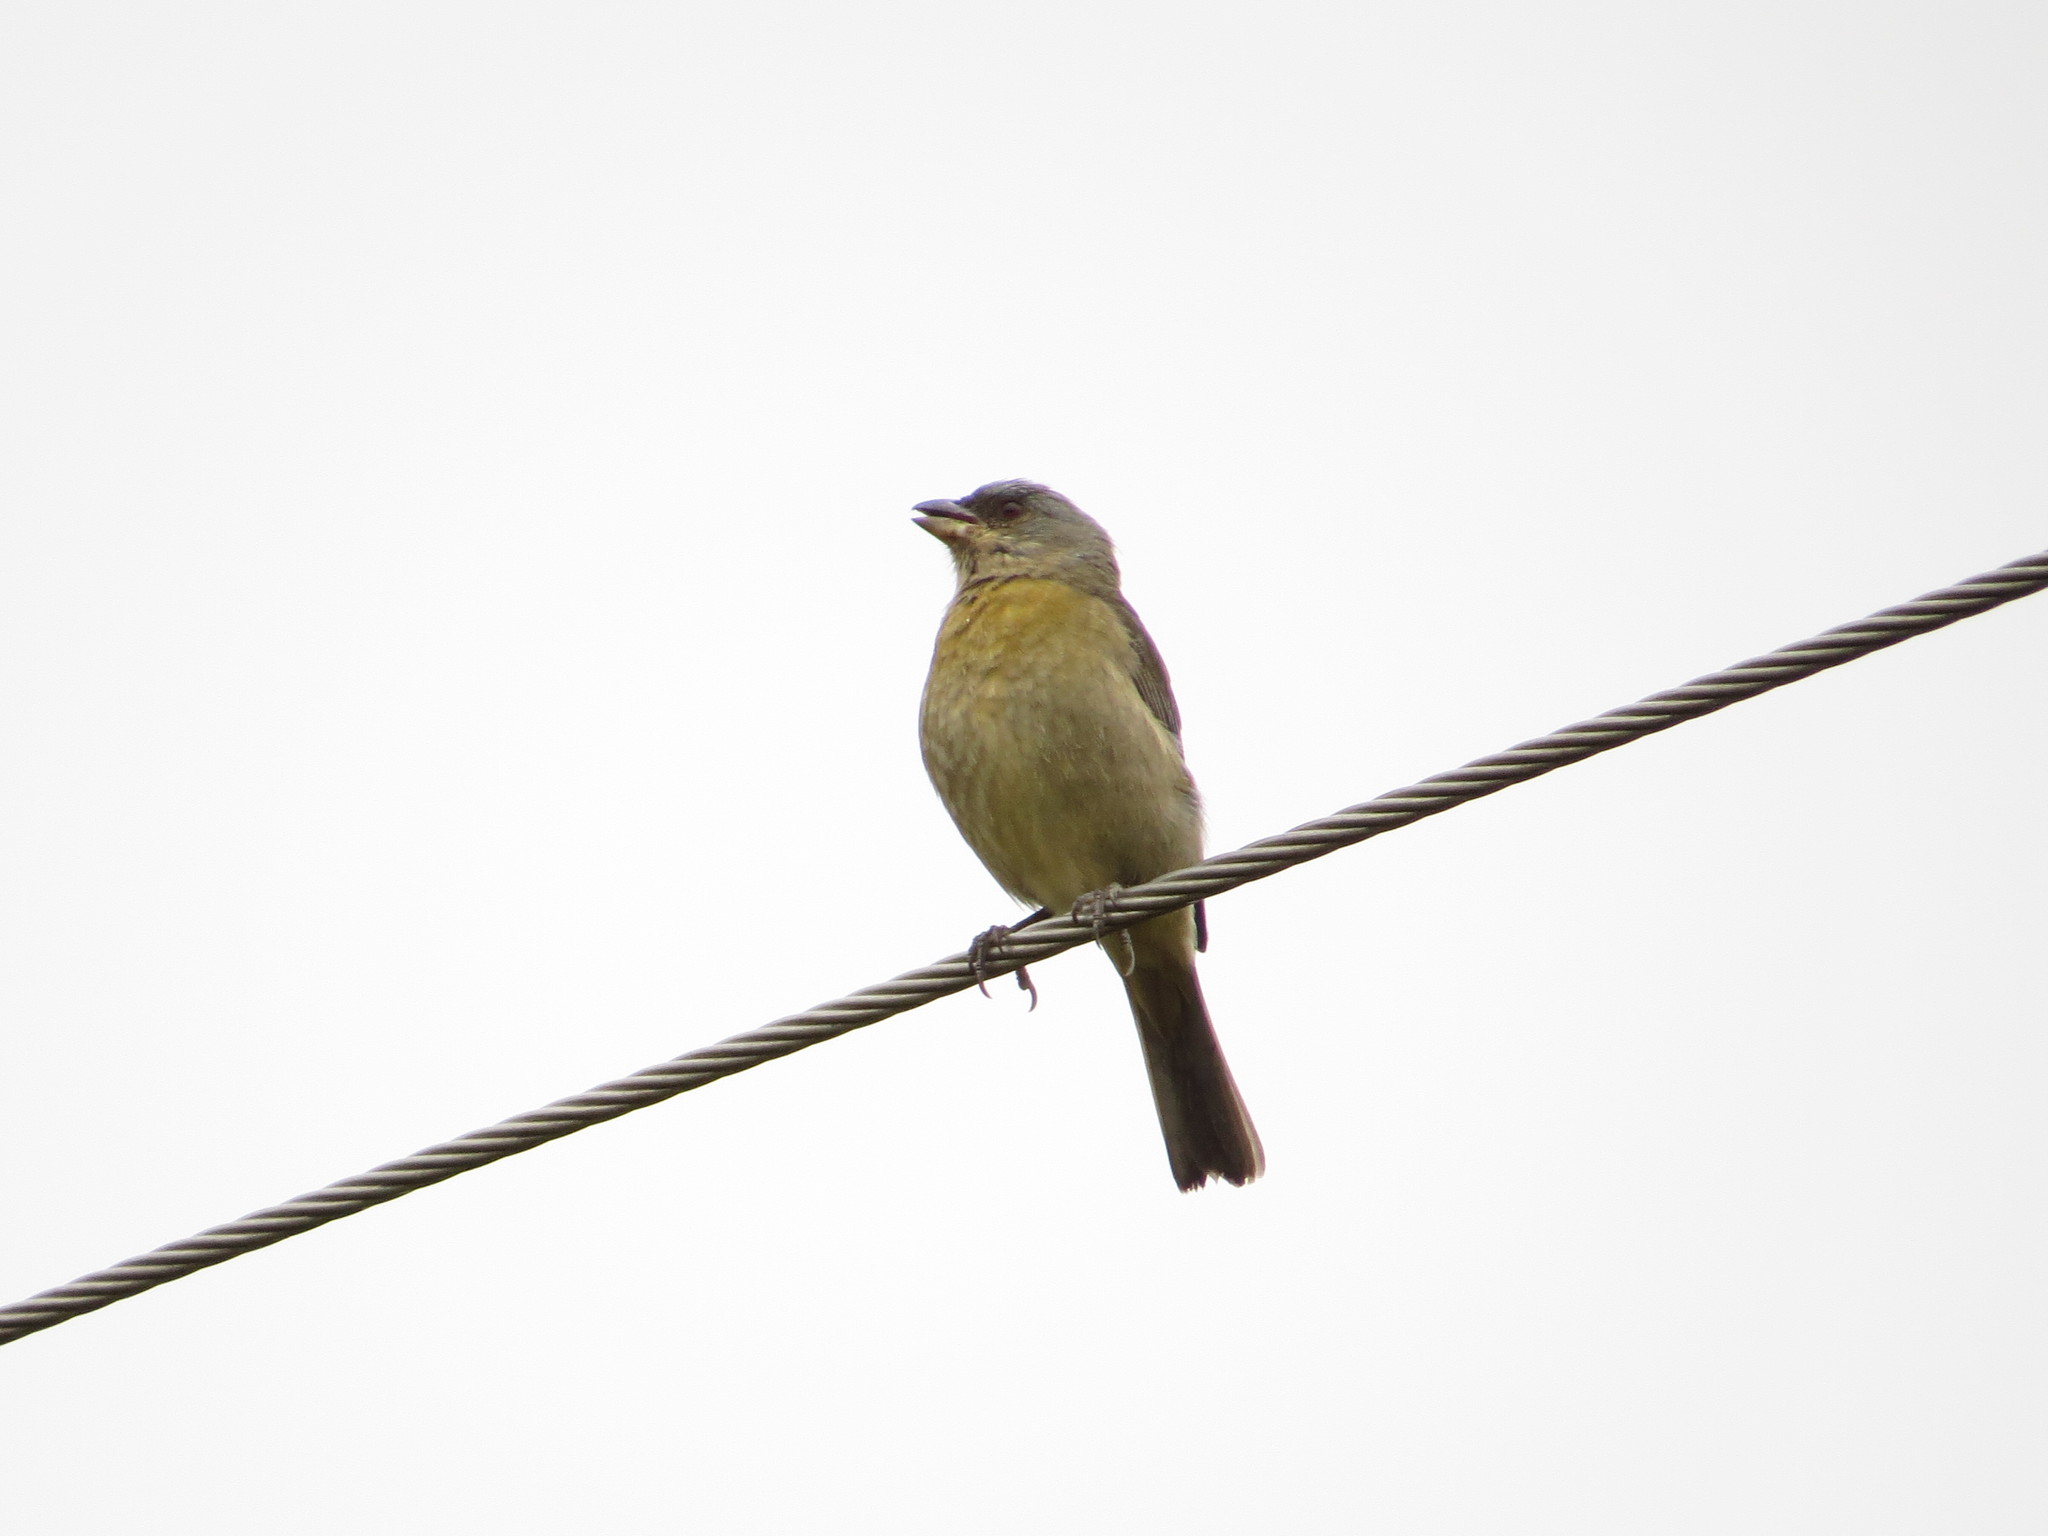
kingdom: Animalia
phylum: Chordata
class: Aves
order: Passeriformes
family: Thraupidae
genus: Rauenia
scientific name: Rauenia bonariensis
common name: Blue-and-yellow tanager
